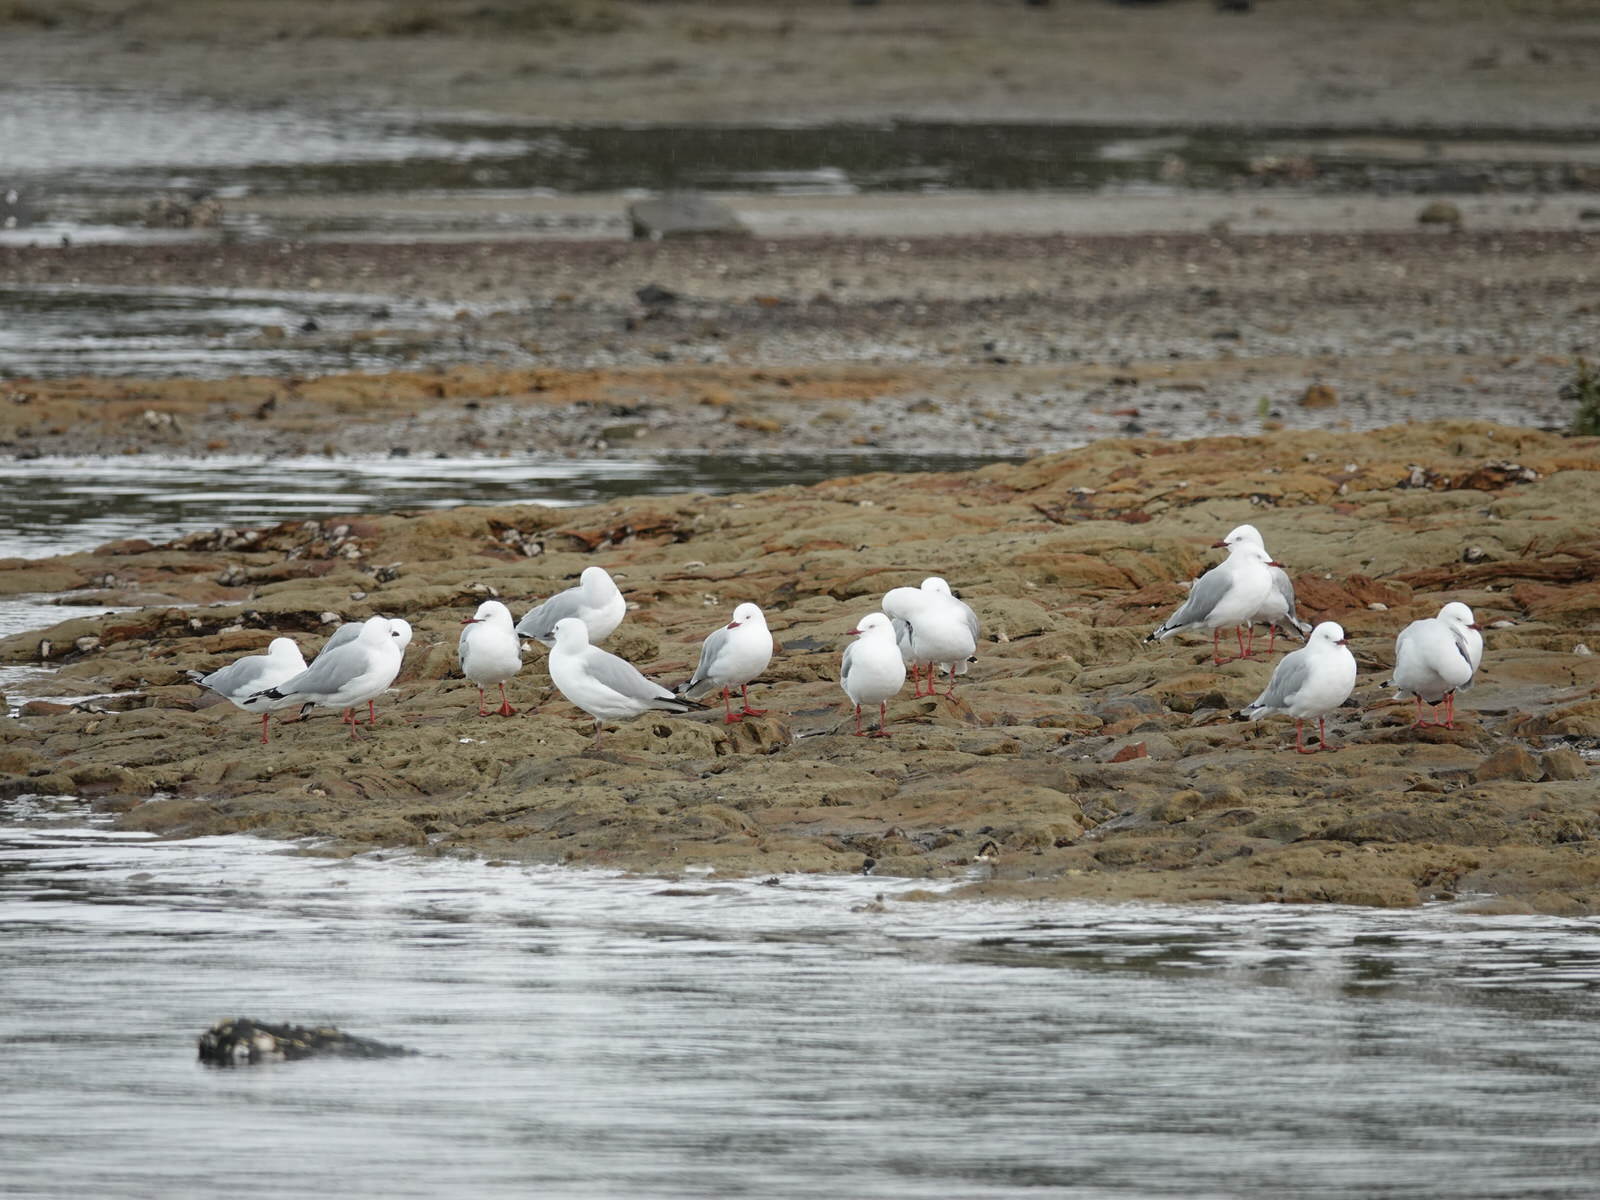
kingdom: Animalia
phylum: Chordata
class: Aves
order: Charadriiformes
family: Laridae
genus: Chroicocephalus
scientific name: Chroicocephalus novaehollandiae
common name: Silver gull
